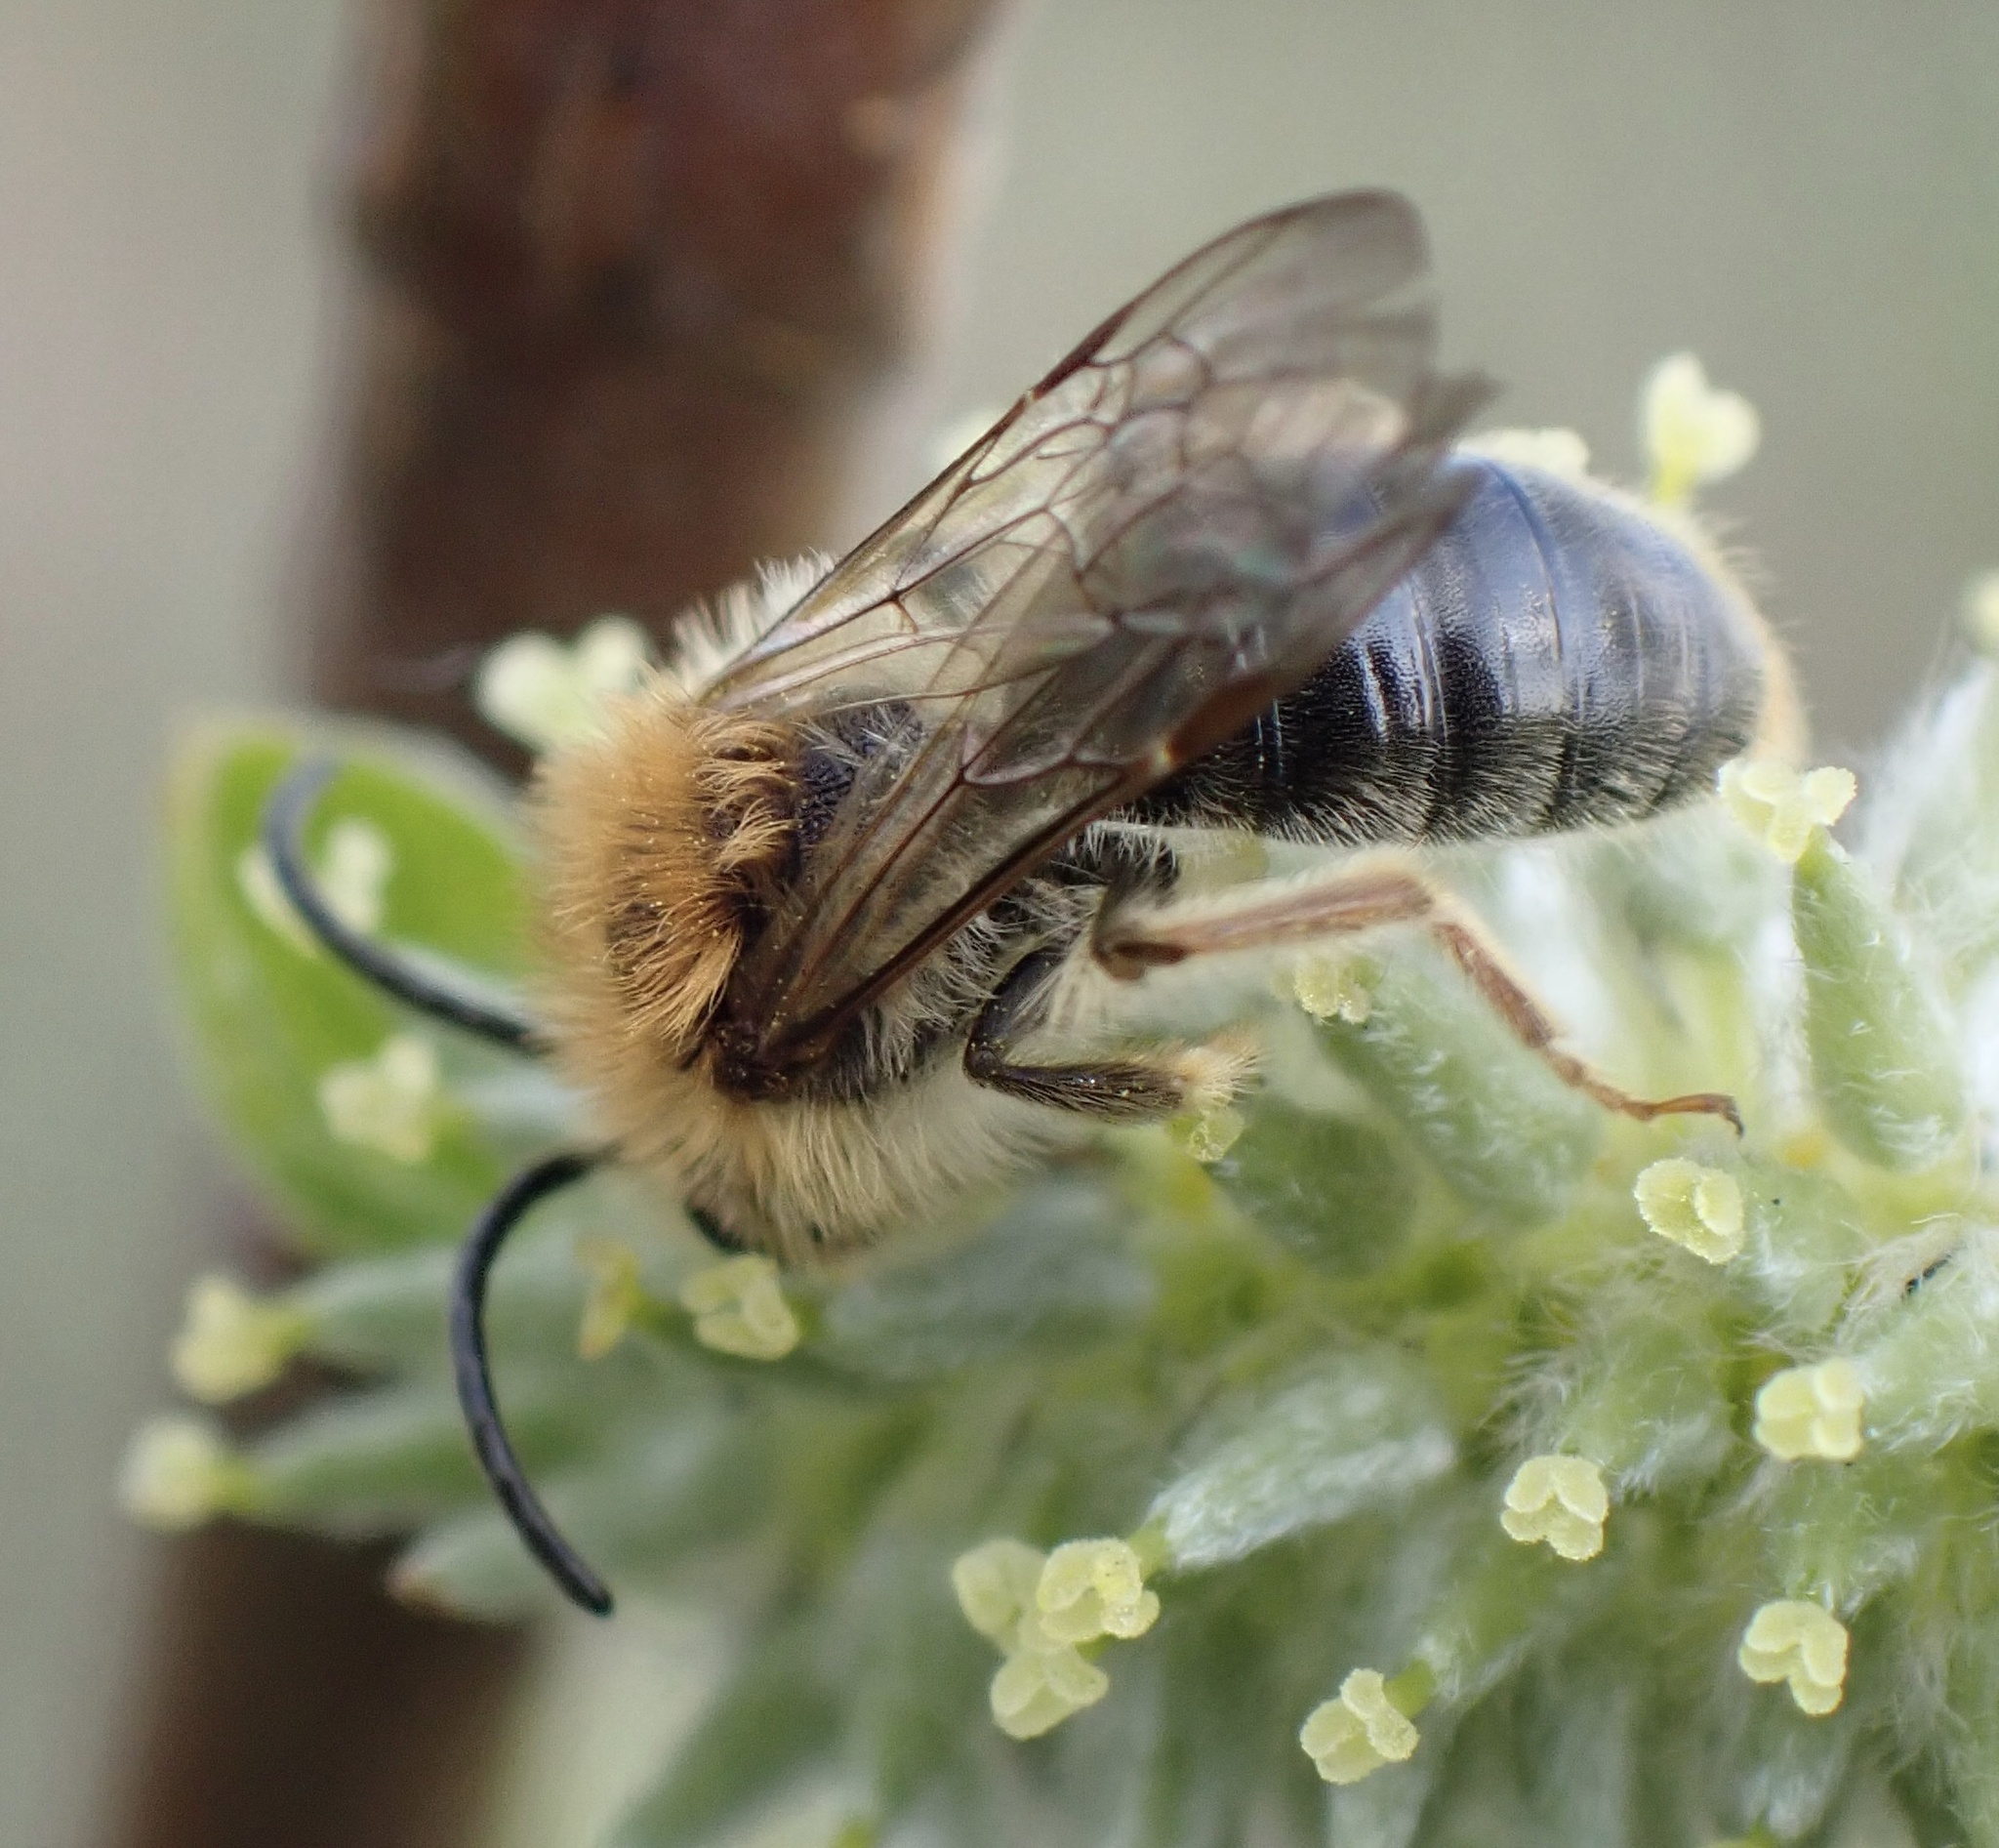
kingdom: Animalia
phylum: Arthropoda
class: Insecta
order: Hymenoptera
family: Andrenidae
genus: Andrena
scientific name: Andrena nitida
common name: Grey-patched mining bee
